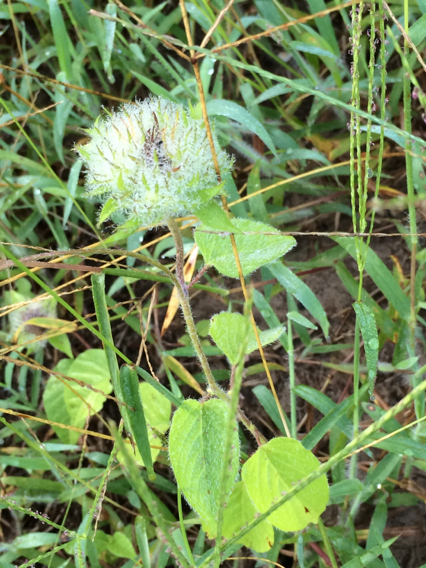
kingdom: Plantae
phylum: Tracheophyta
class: Magnoliopsida
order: Solanales
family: Convolvulaceae
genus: Jacquemontia
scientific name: Jacquemontia tamnifolia
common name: Hairy clustervine
